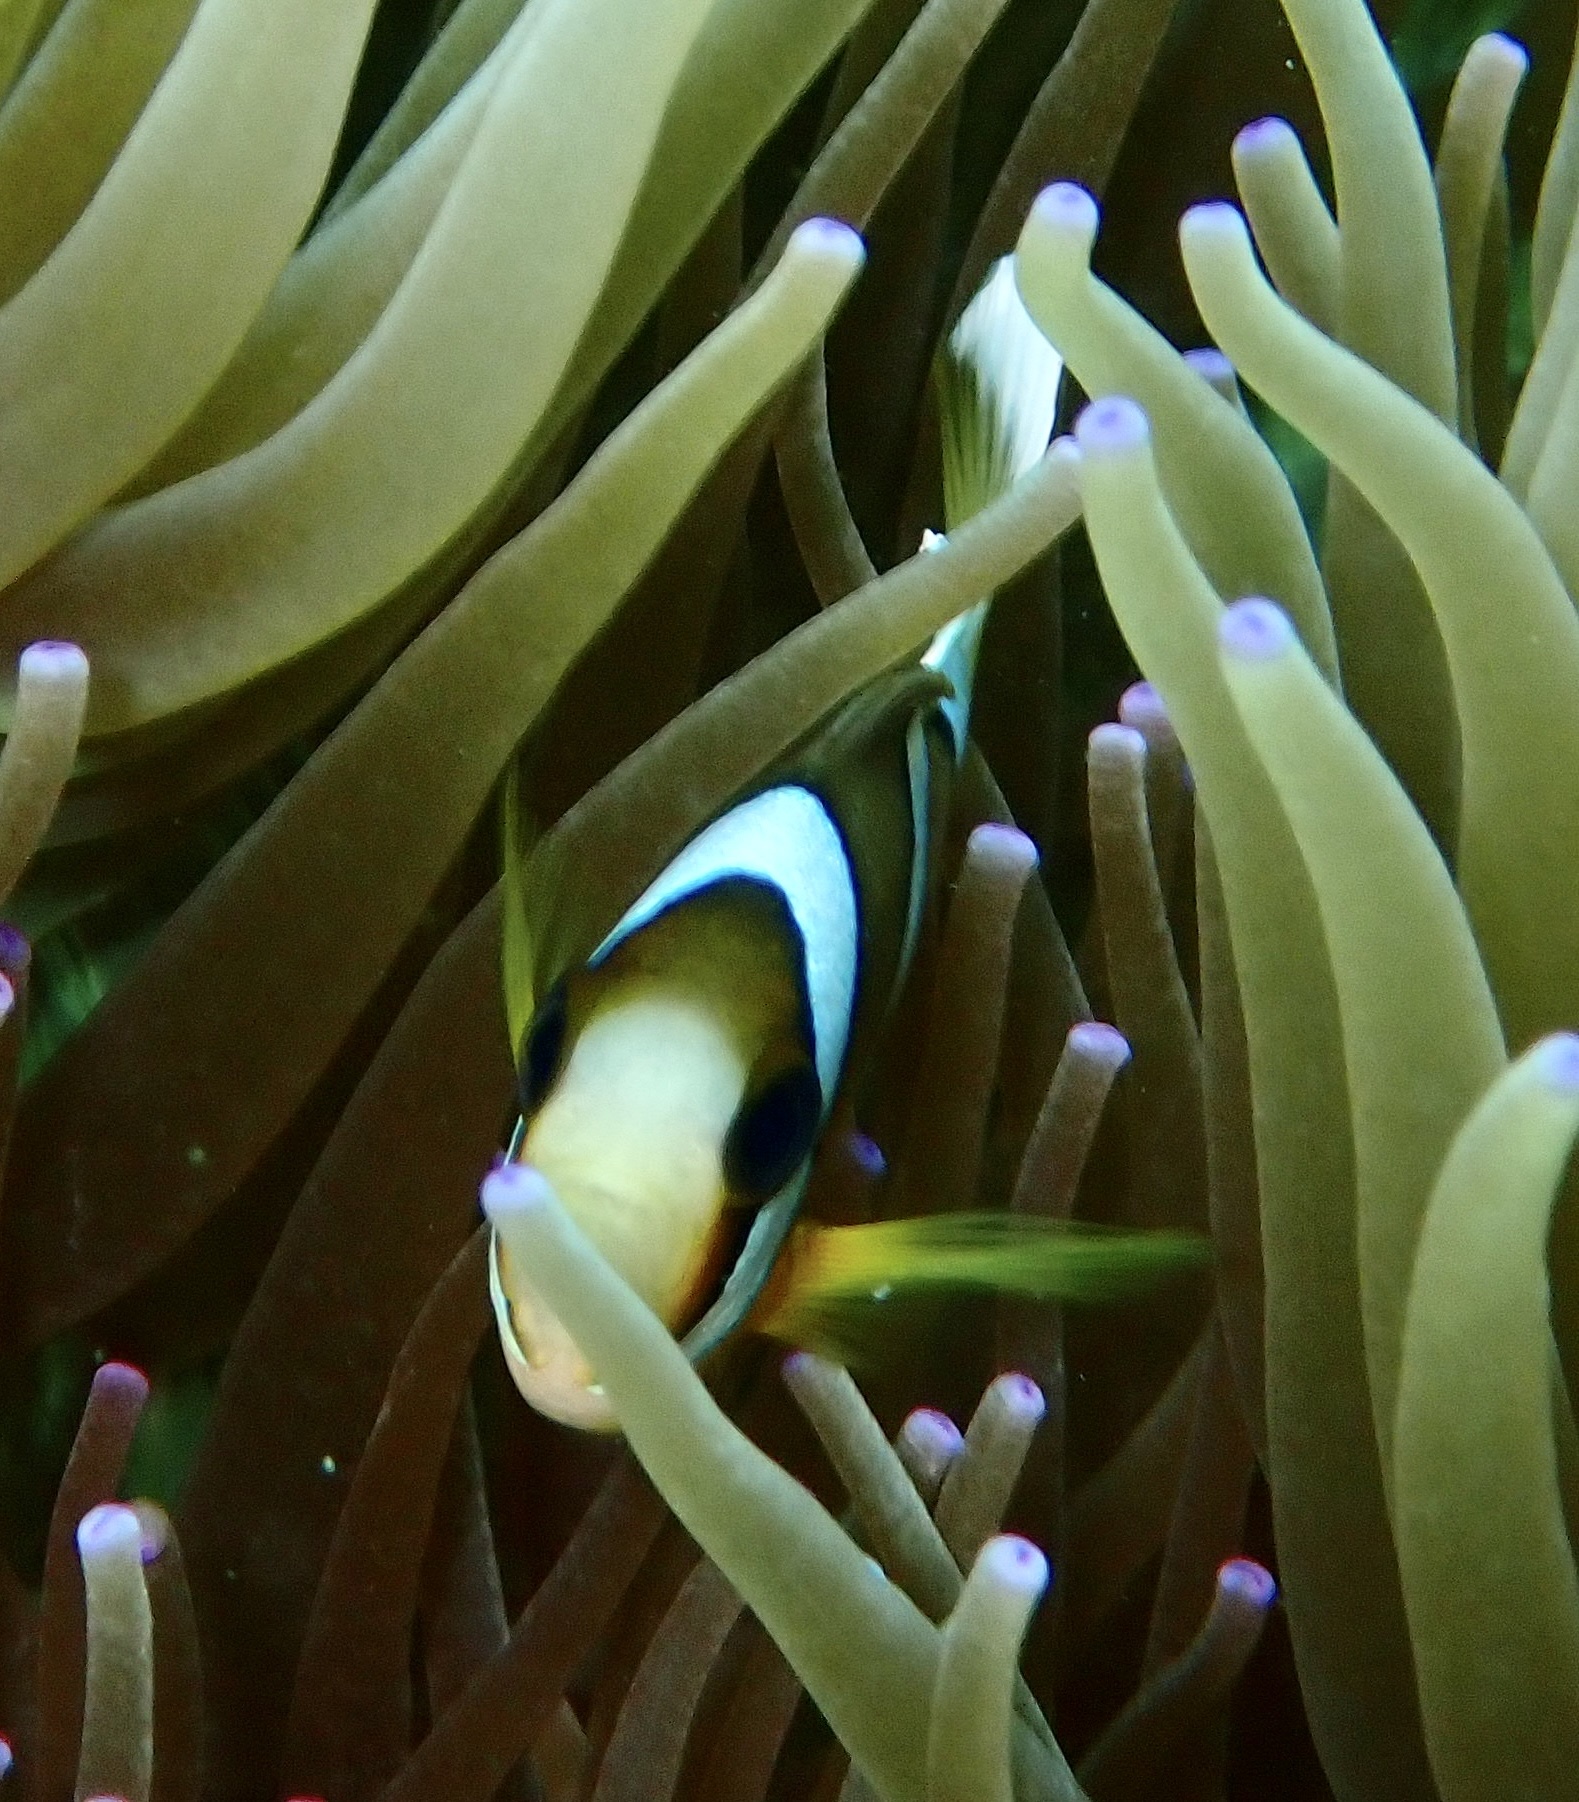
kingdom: Animalia
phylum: Chordata
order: Perciformes
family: Pomacentridae
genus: Amphiprion
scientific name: Amphiprion clarkii
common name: Clark's anemonefish
